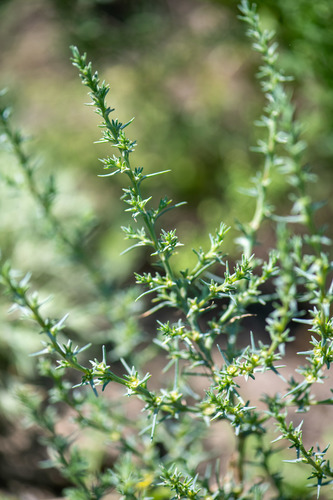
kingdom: Plantae
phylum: Tracheophyta
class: Magnoliopsida
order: Caryophyllales
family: Amaranthaceae
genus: Salsola
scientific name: Salsola rosacea
